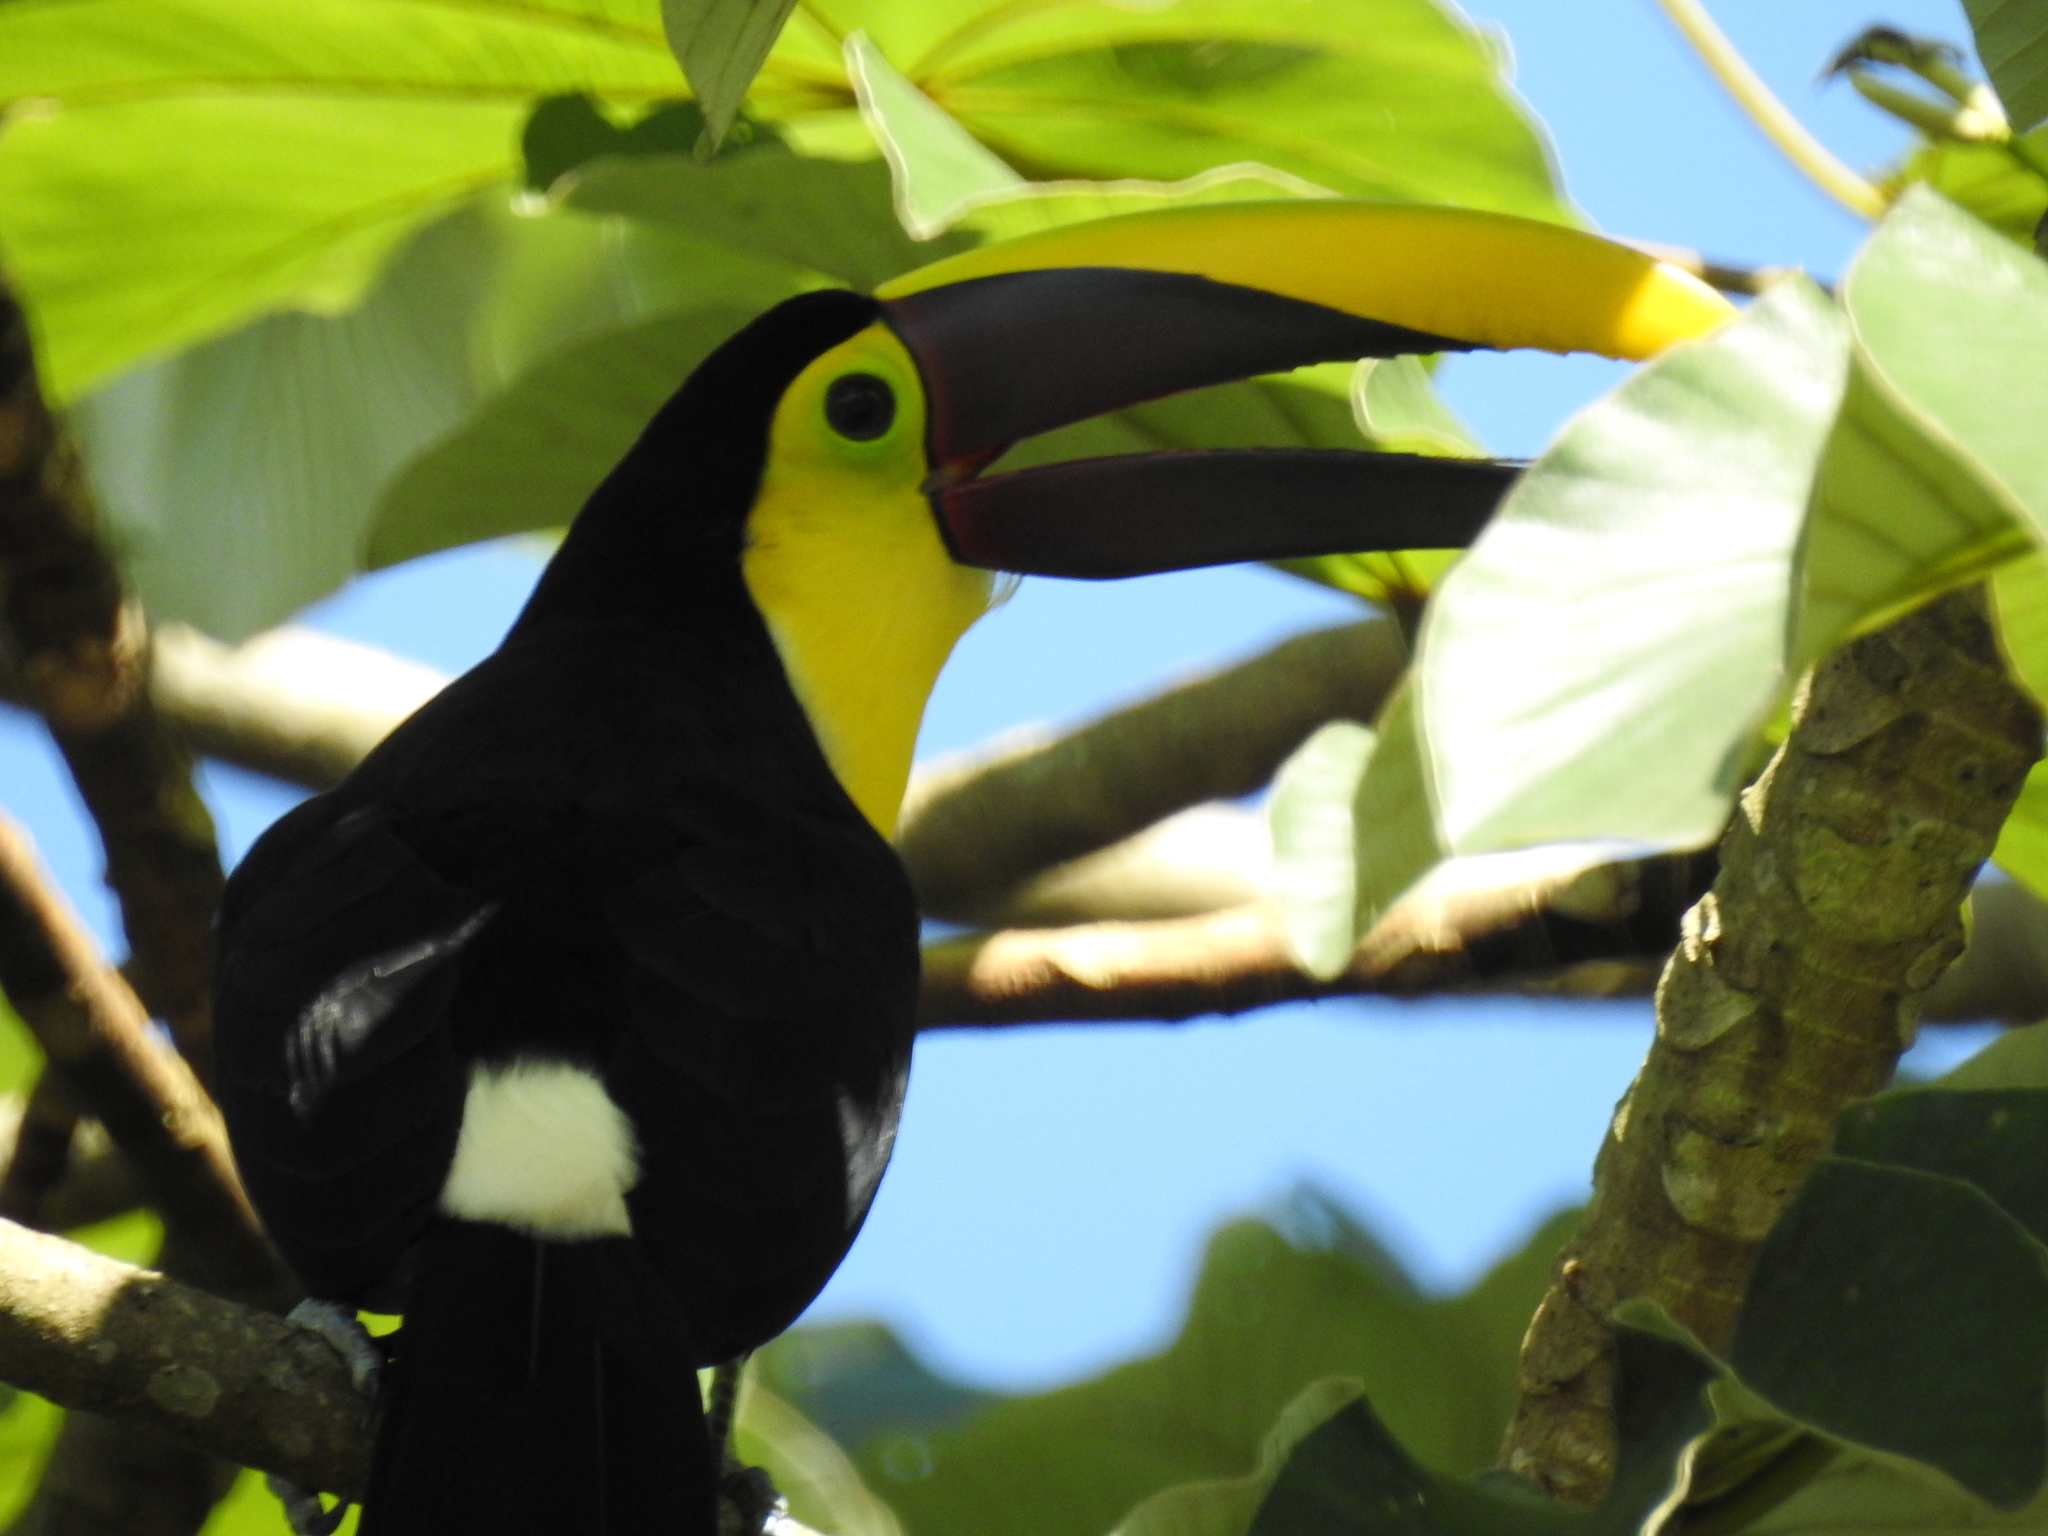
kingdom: Animalia
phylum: Chordata
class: Aves
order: Piciformes
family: Ramphastidae
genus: Ramphastos
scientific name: Ramphastos ambiguus
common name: Yellow-throated toucan
